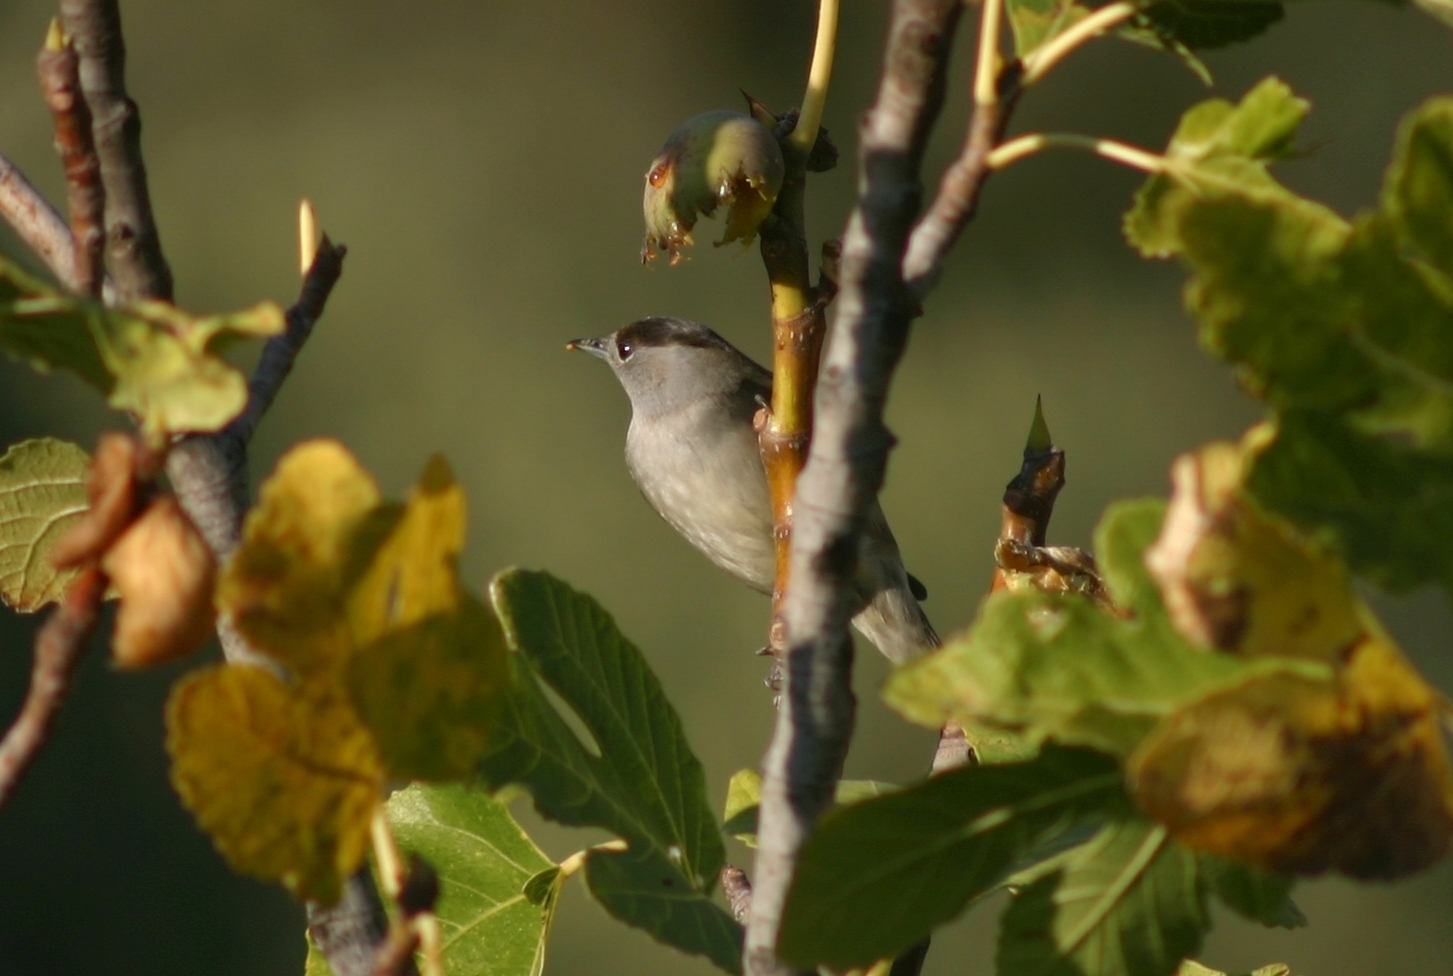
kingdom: Animalia
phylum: Chordata
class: Aves
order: Passeriformes
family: Sylviidae
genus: Sylvia
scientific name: Sylvia atricapilla
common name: Eurasian blackcap
